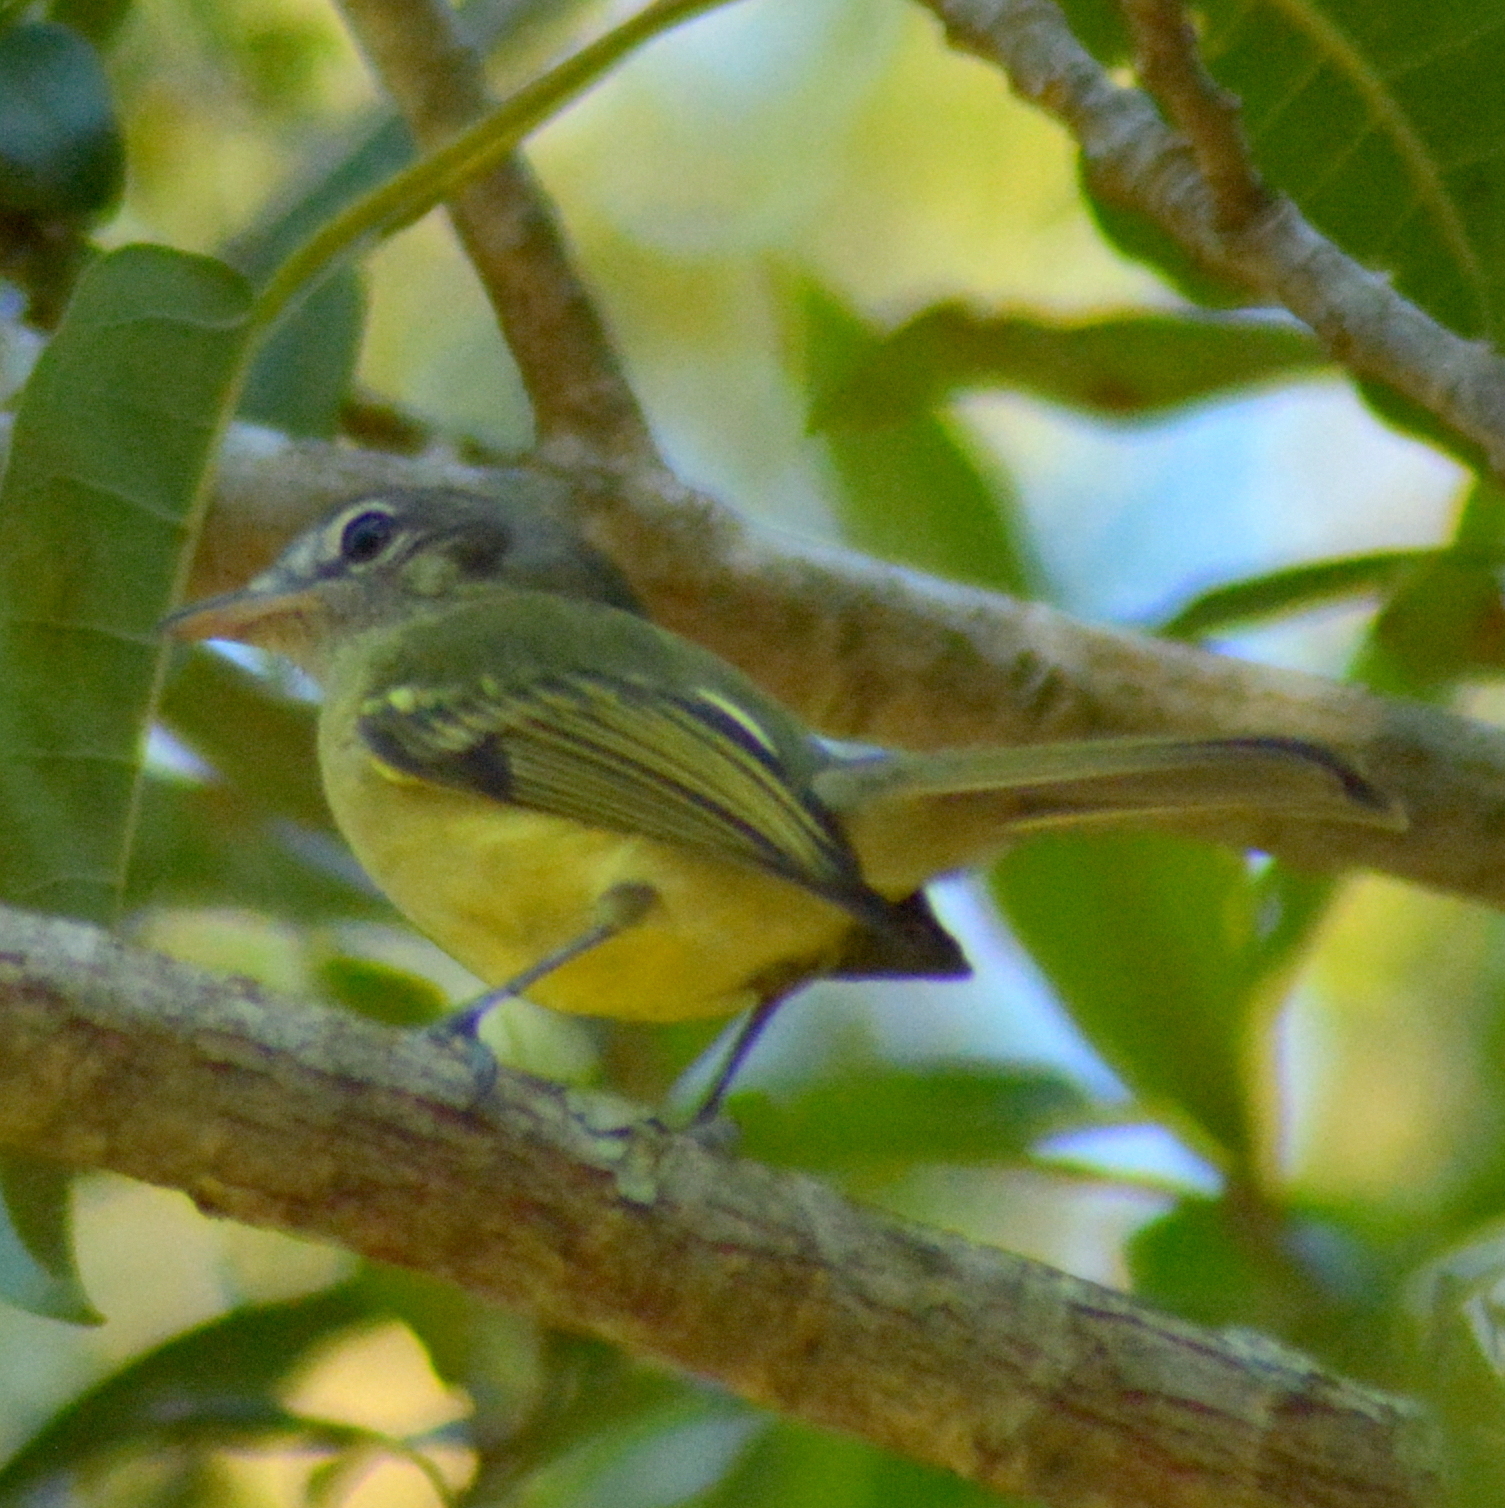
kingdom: Animalia
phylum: Chordata
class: Aves
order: Passeriformes
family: Tyrannidae
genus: Tolmomyias
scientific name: Tolmomyias sulphurescens
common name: Yellow-olive flycatcher
